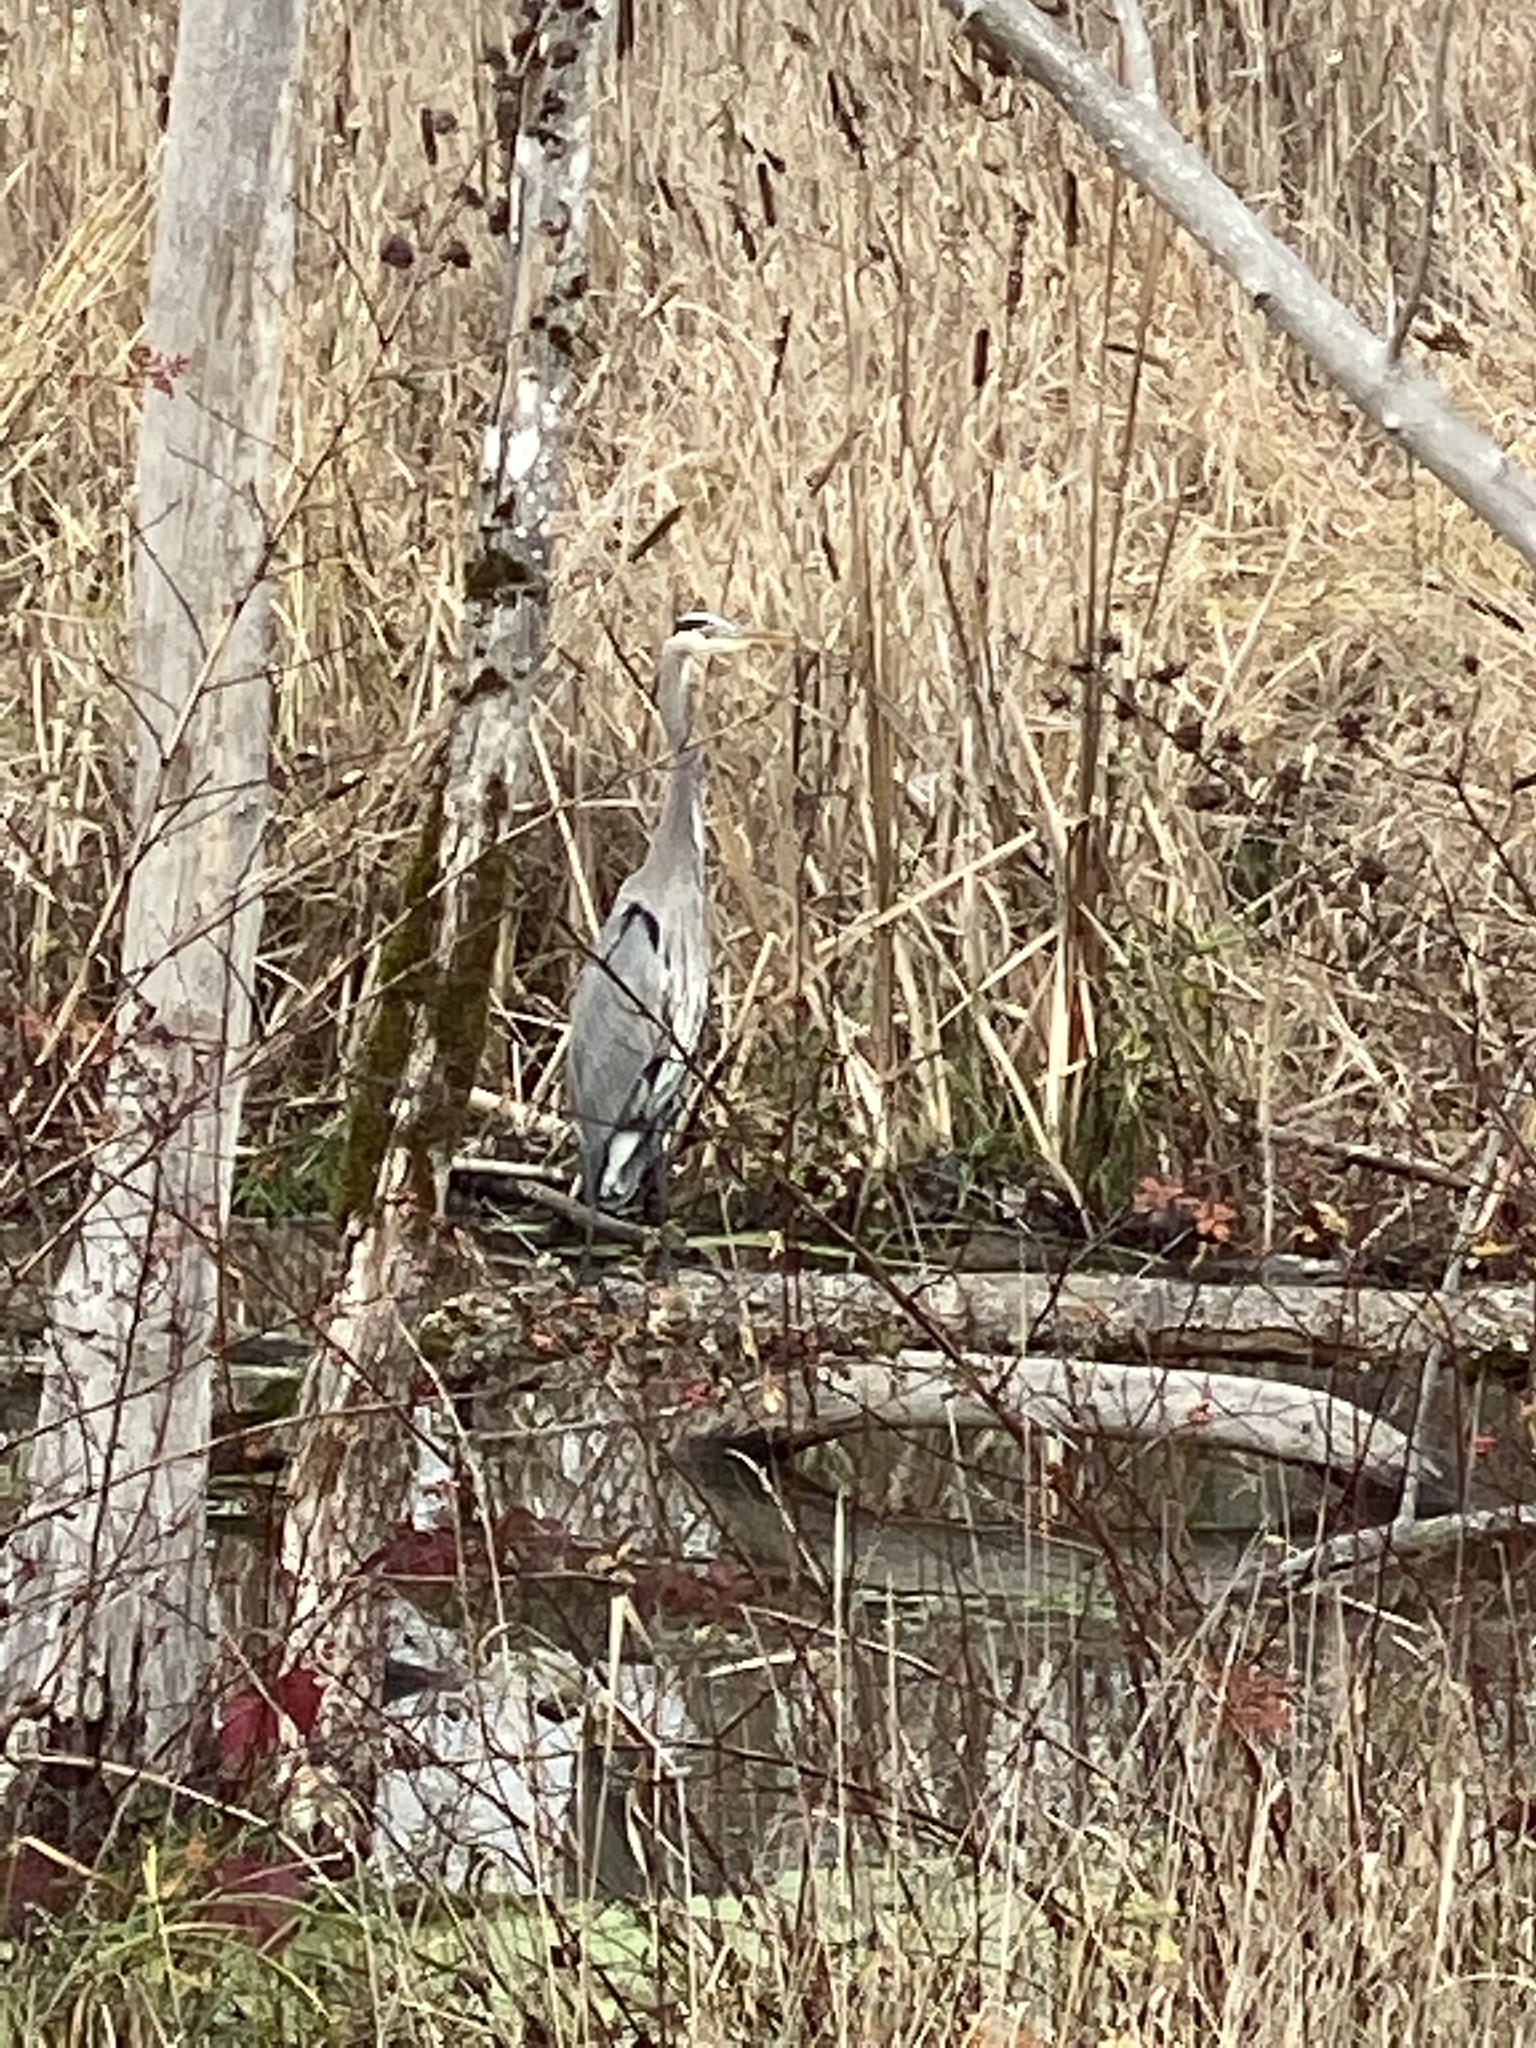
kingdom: Animalia
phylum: Chordata
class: Aves
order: Pelecaniformes
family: Ardeidae
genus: Ardea
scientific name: Ardea herodias
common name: Great blue heron
